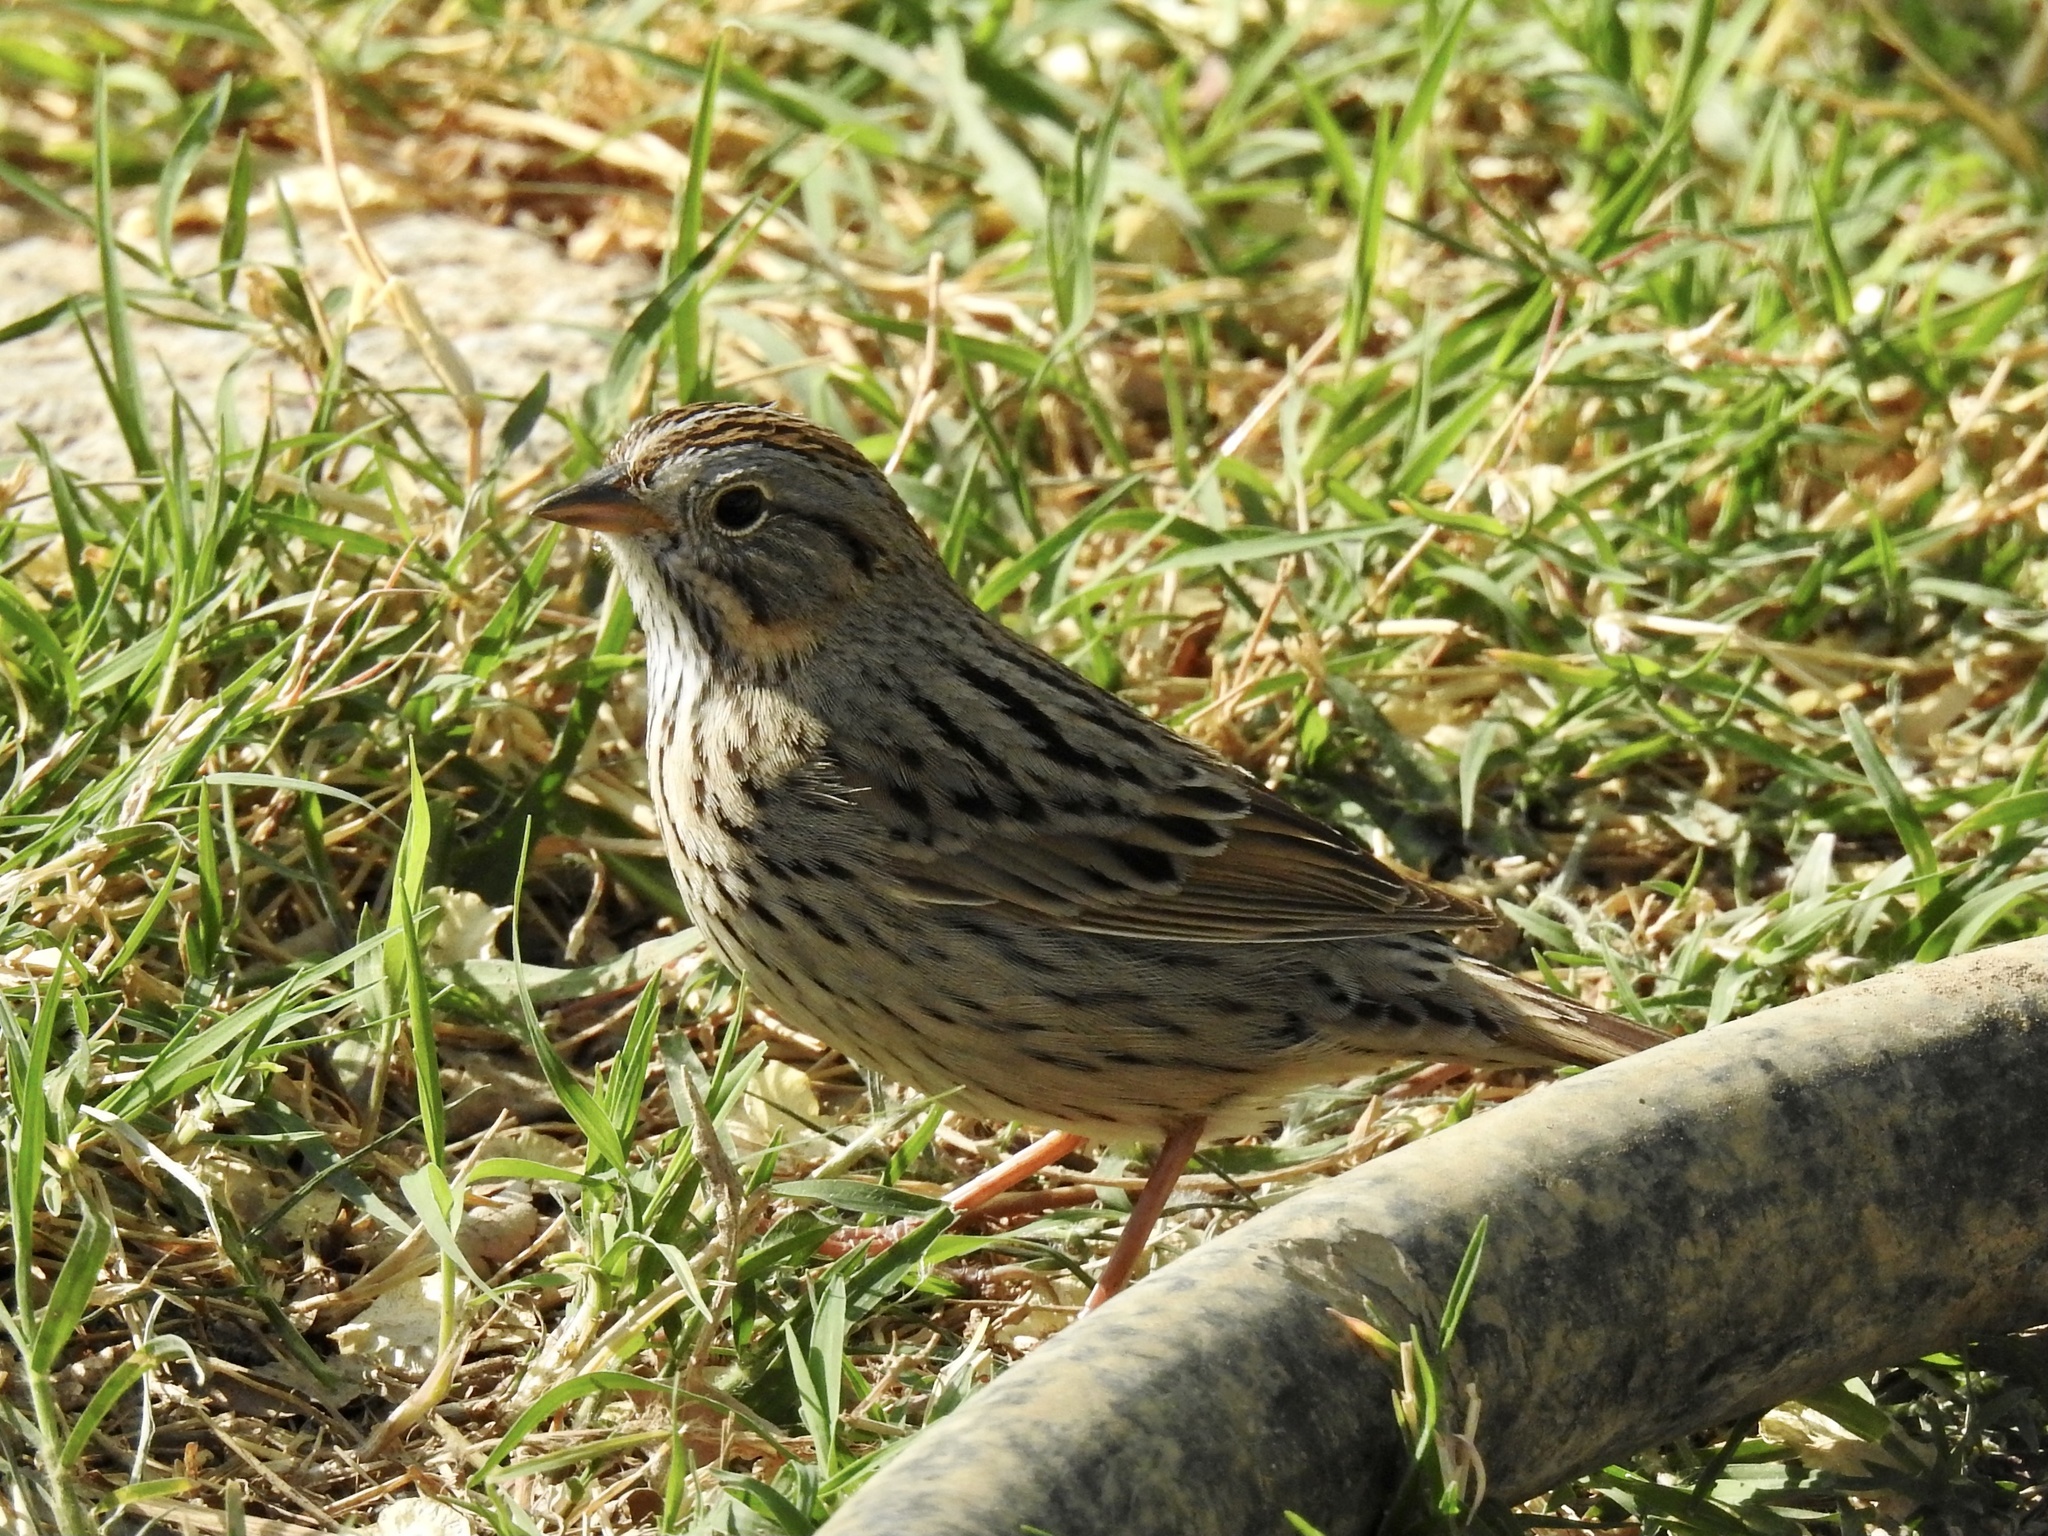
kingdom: Animalia
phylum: Chordata
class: Aves
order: Passeriformes
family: Passerellidae
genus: Melospiza
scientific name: Melospiza lincolnii
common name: Lincoln's sparrow
